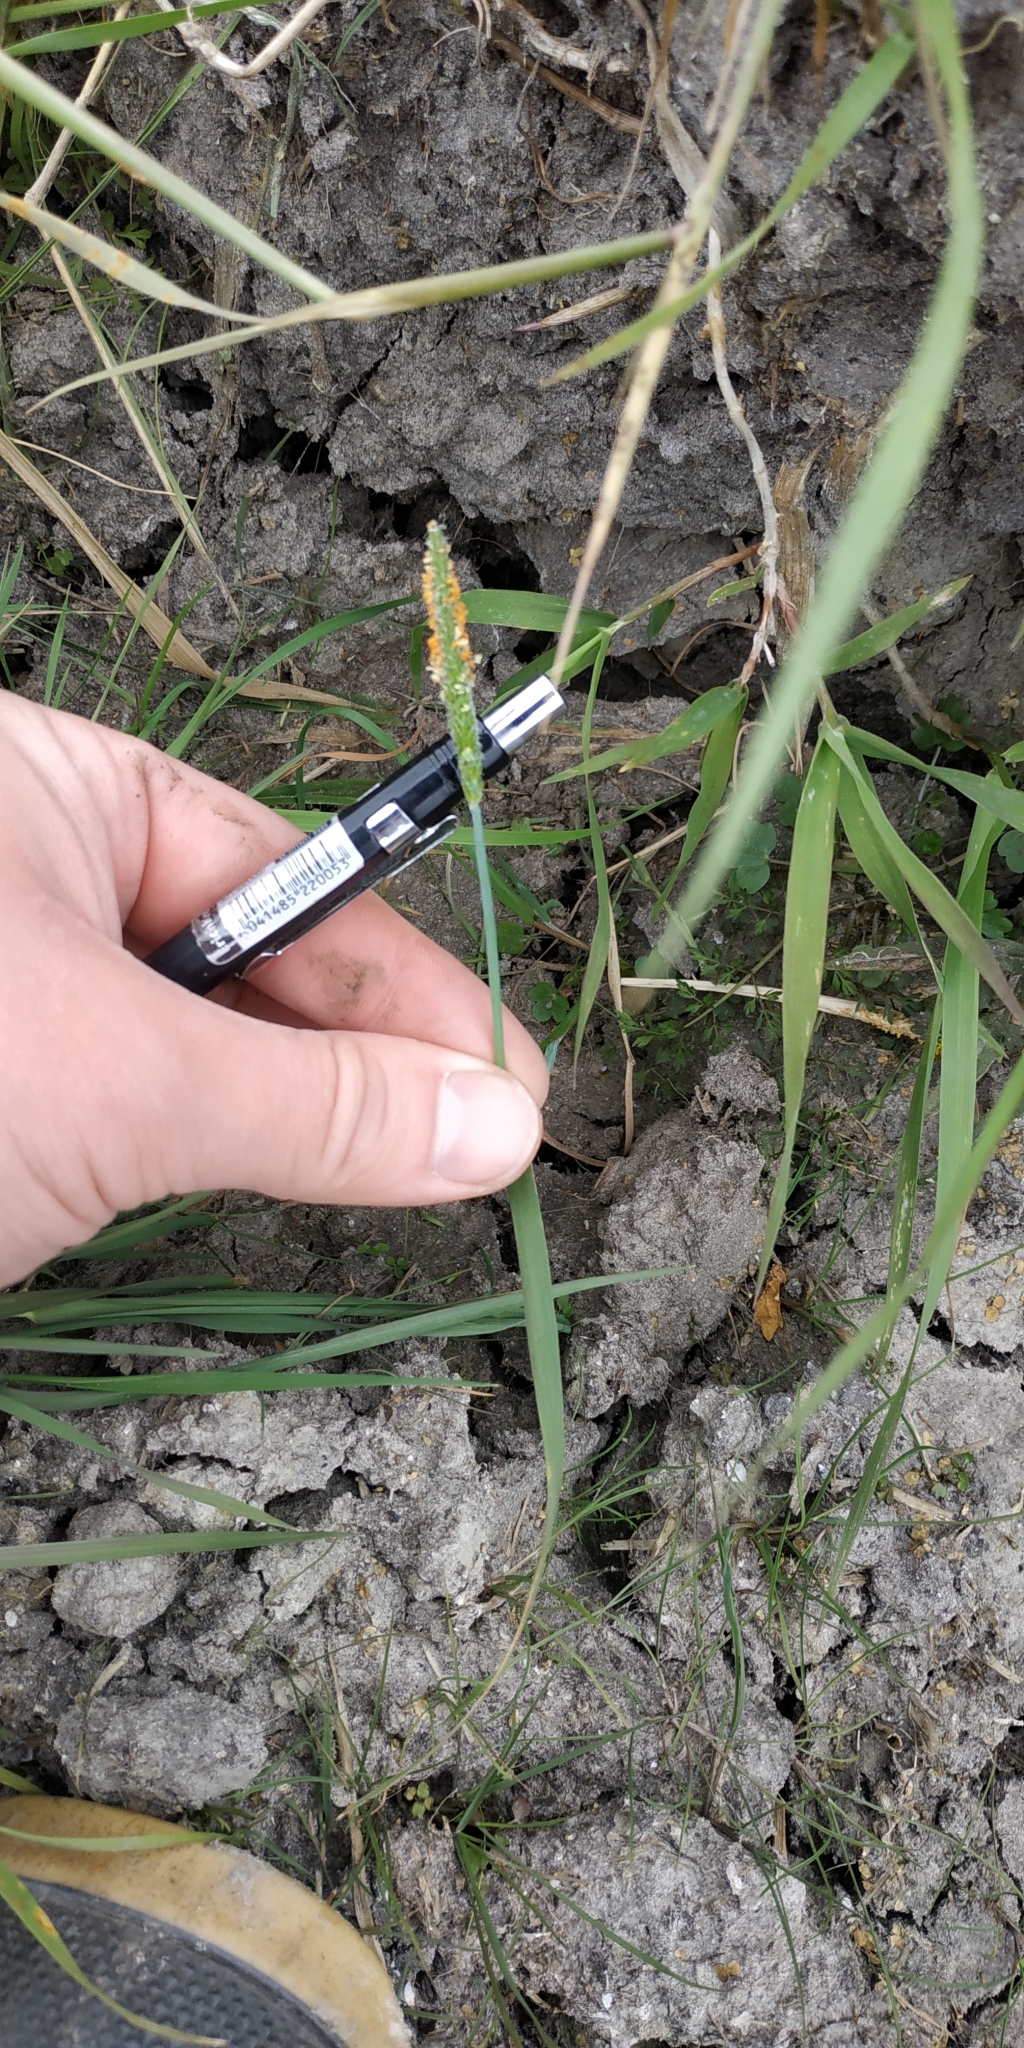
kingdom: Plantae
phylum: Tracheophyta
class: Liliopsida
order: Poales
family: Poaceae
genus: Alopecurus
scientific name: Alopecurus aequalis
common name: Orange foxtail
